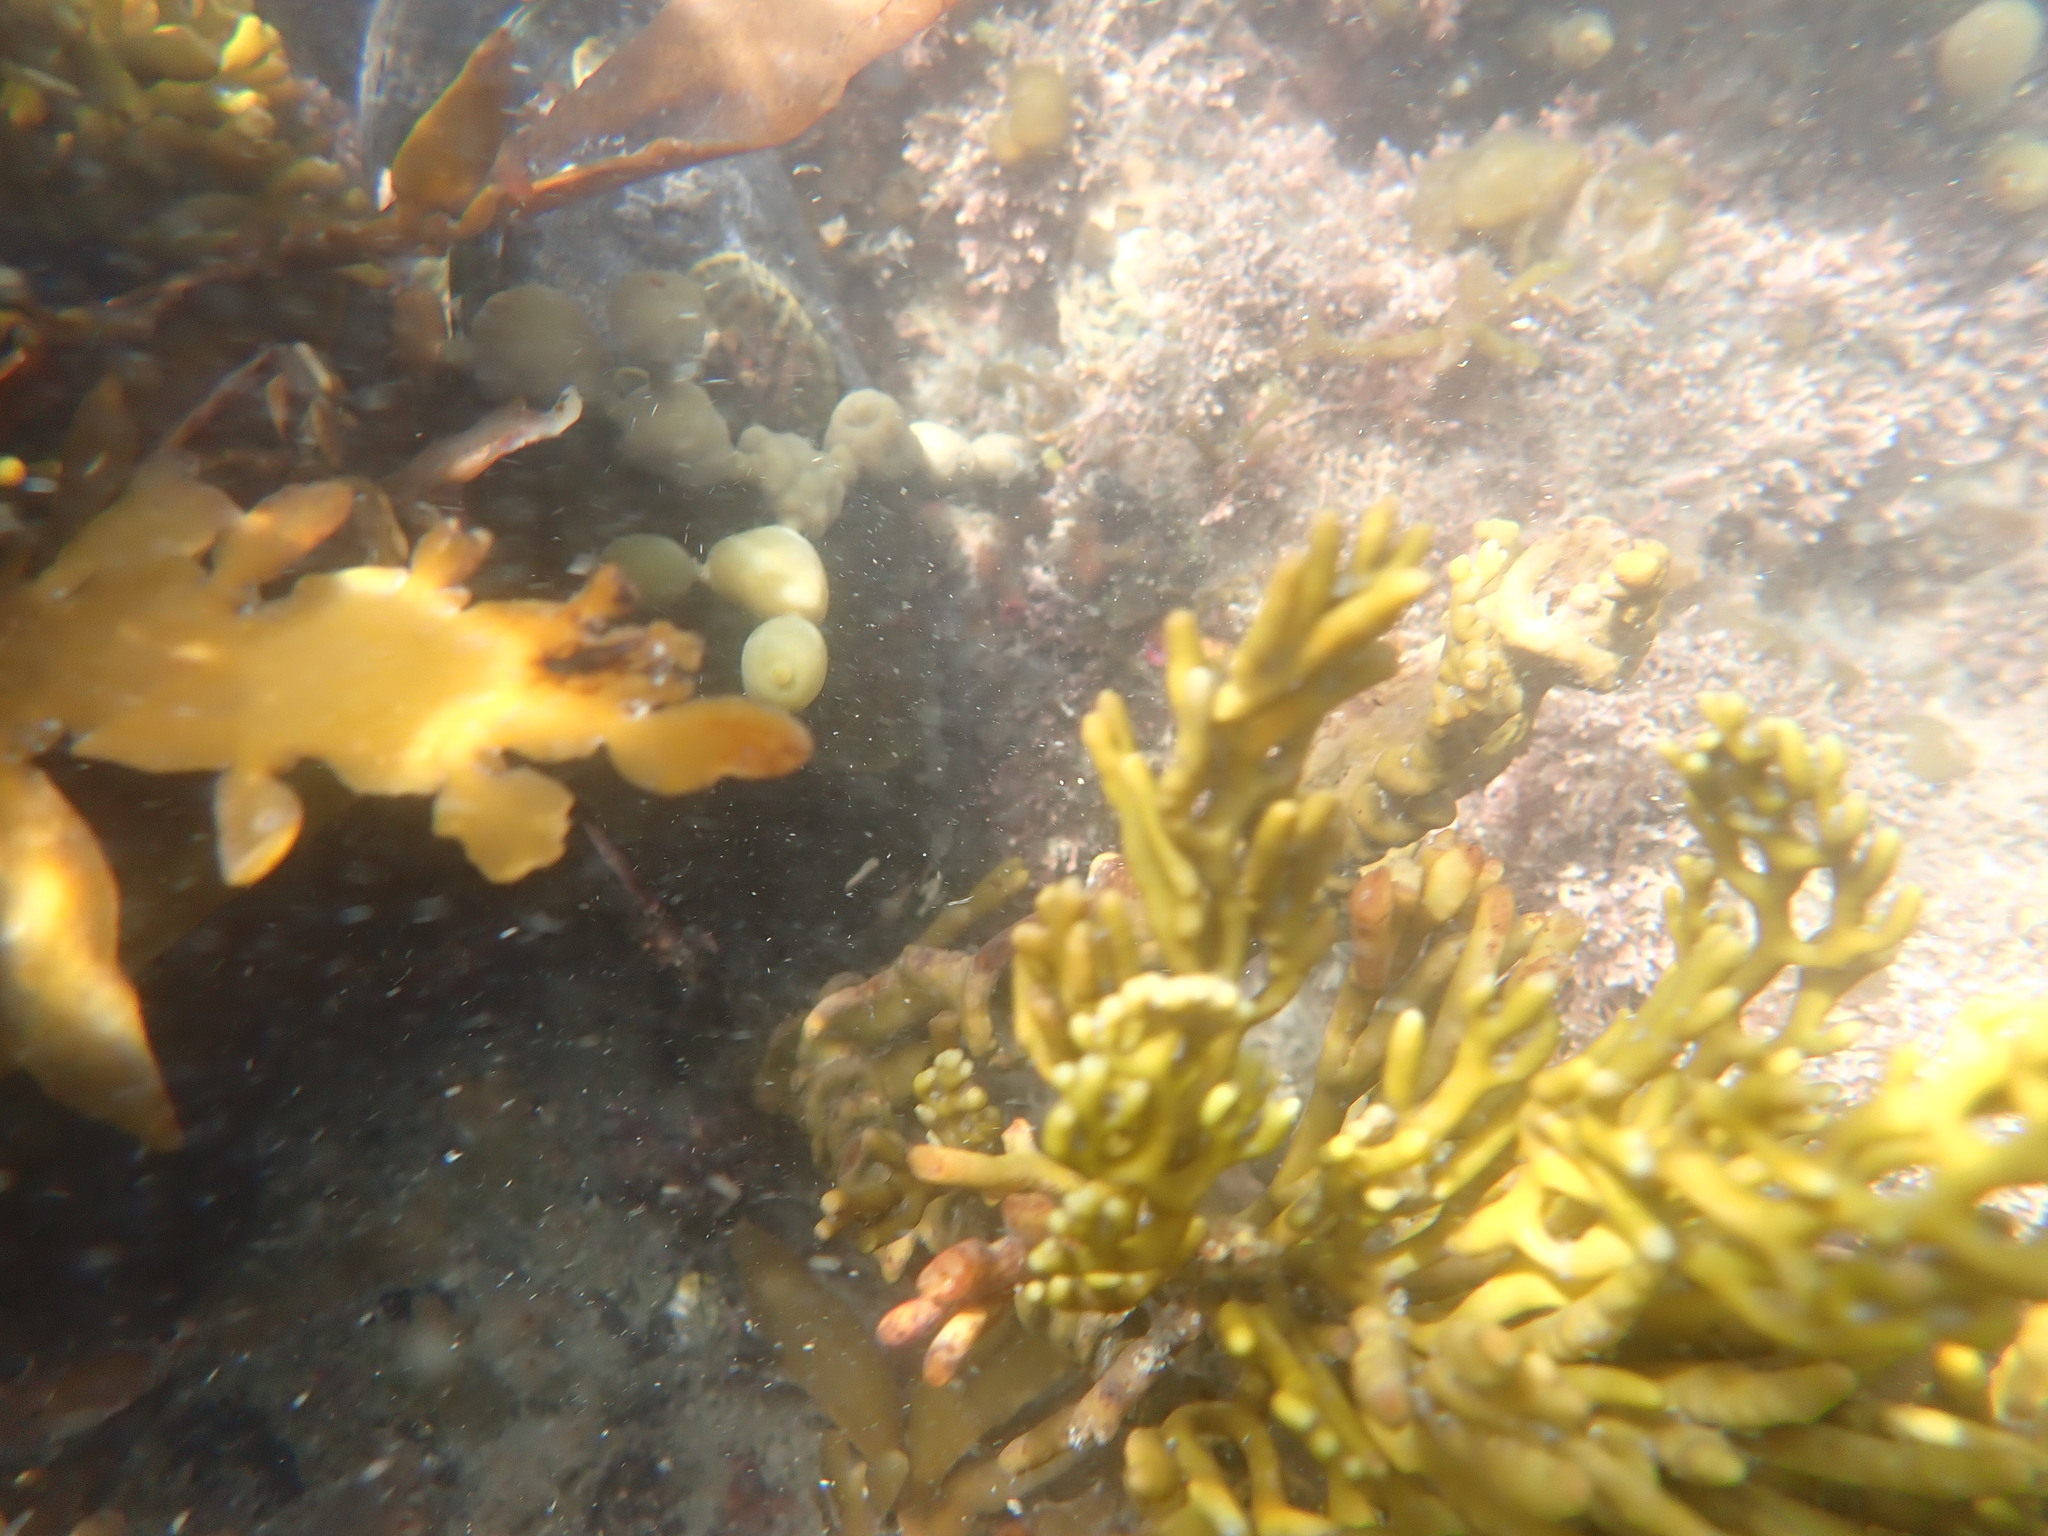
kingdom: Chromista
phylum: Ochrophyta
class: Phaeophyceae
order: Fucales
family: Sargassaceae
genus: Cystophora
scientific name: Cystophora torulosa
